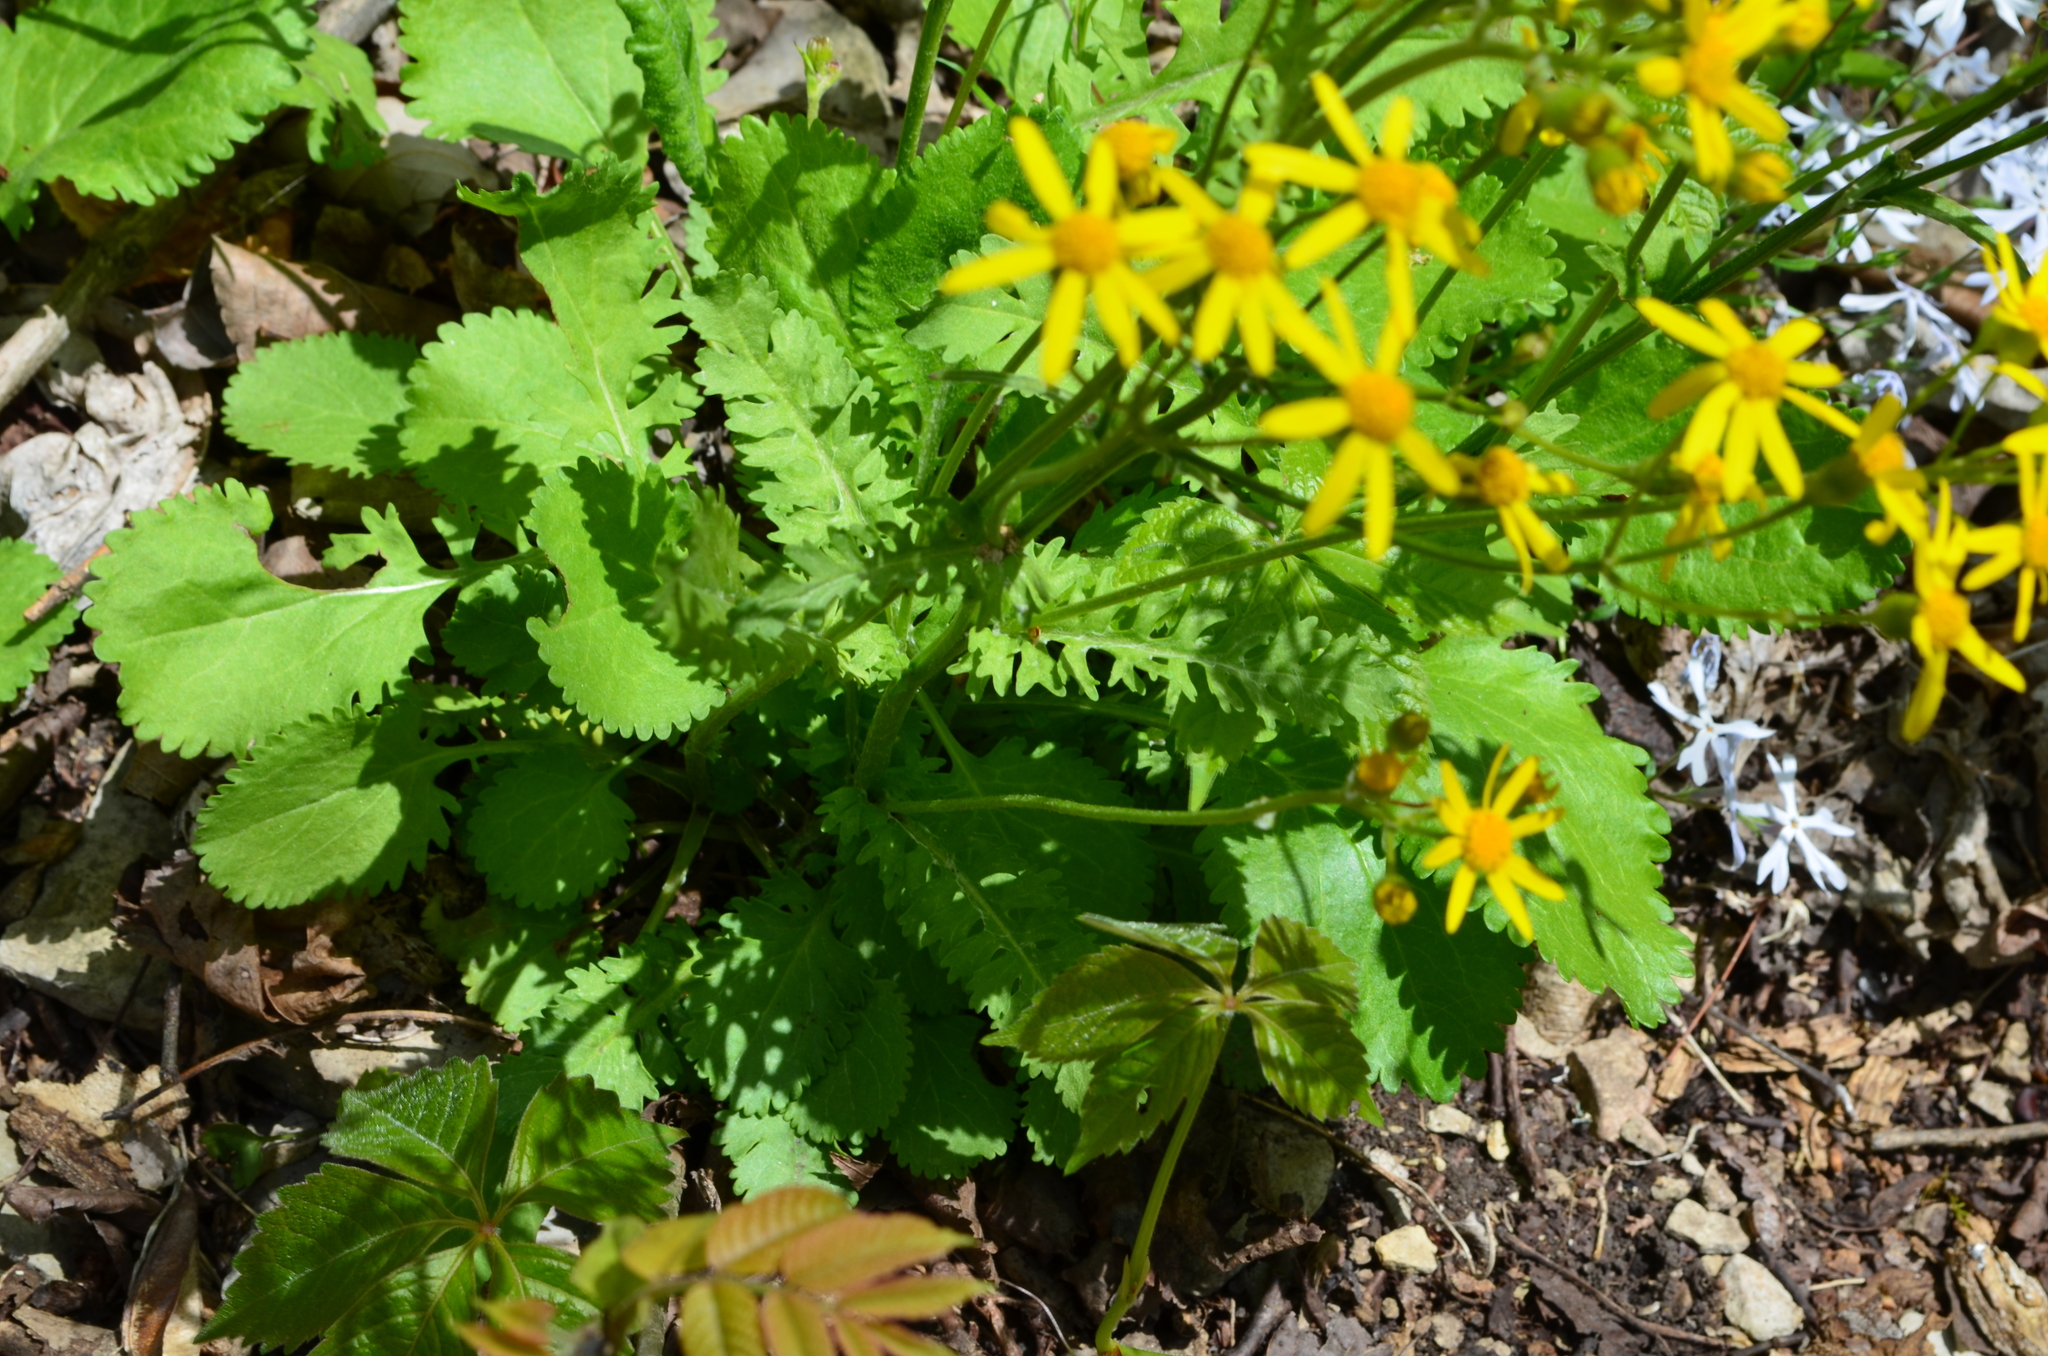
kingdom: Plantae
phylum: Tracheophyta
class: Magnoliopsida
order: Asterales
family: Asteraceae
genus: Packera
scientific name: Packera obovata
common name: Round-leaf ragwort
